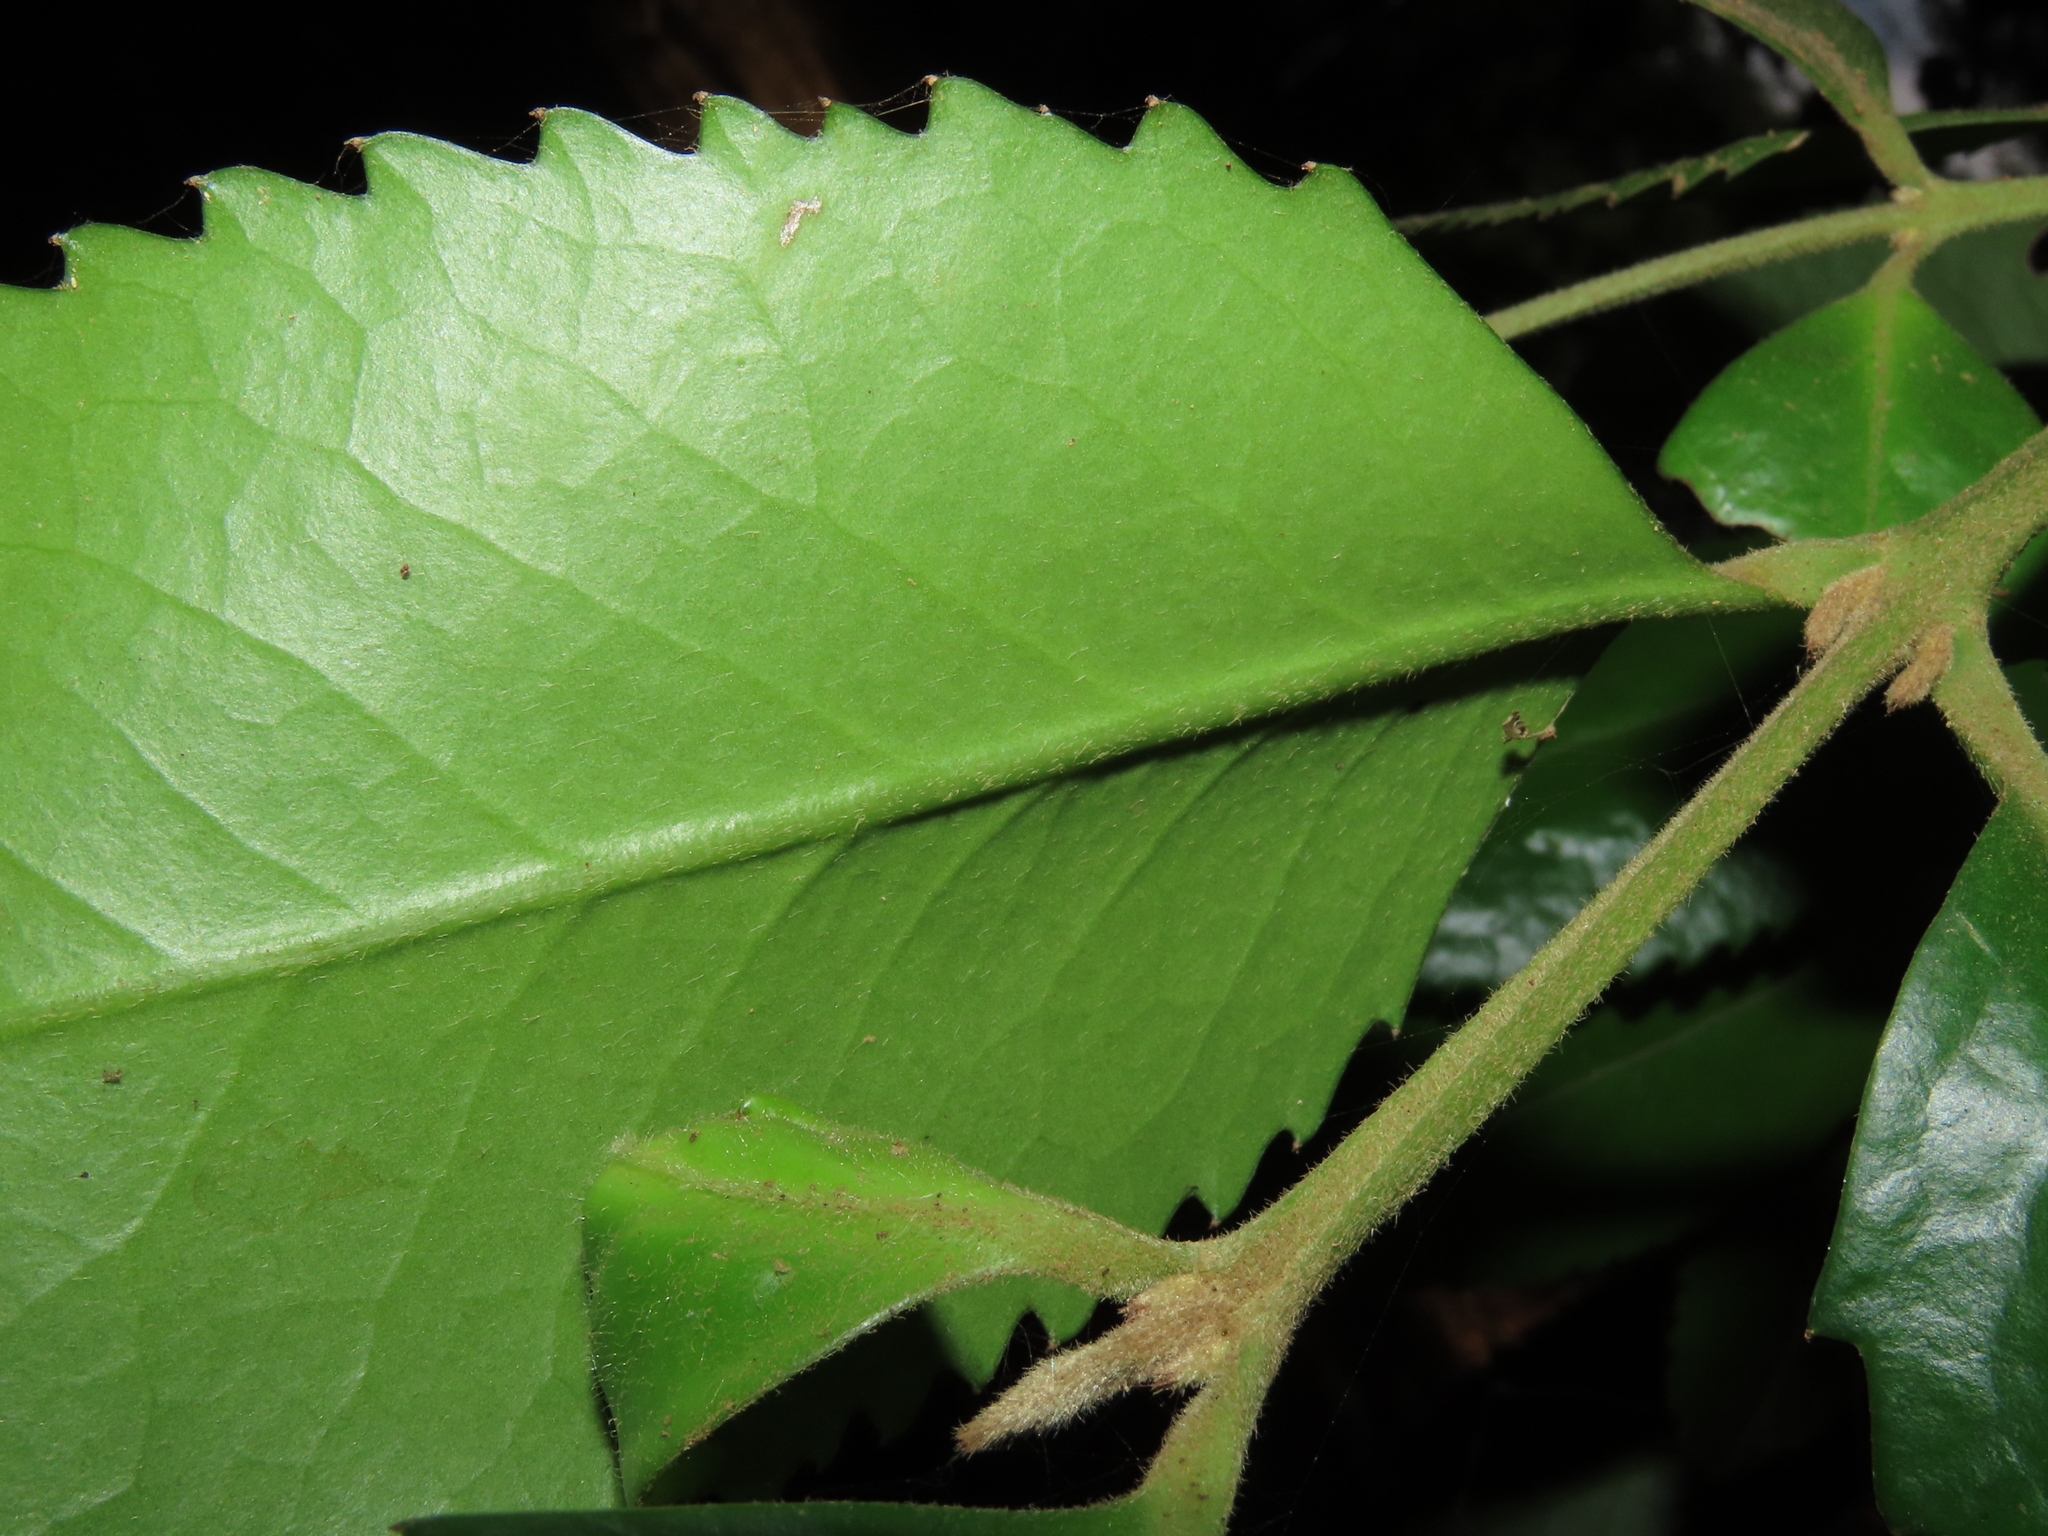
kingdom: Plantae
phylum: Tracheophyta
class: Magnoliopsida
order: Laurales
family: Atherospermataceae
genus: Laureliopsis
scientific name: Laureliopsis philippiana
